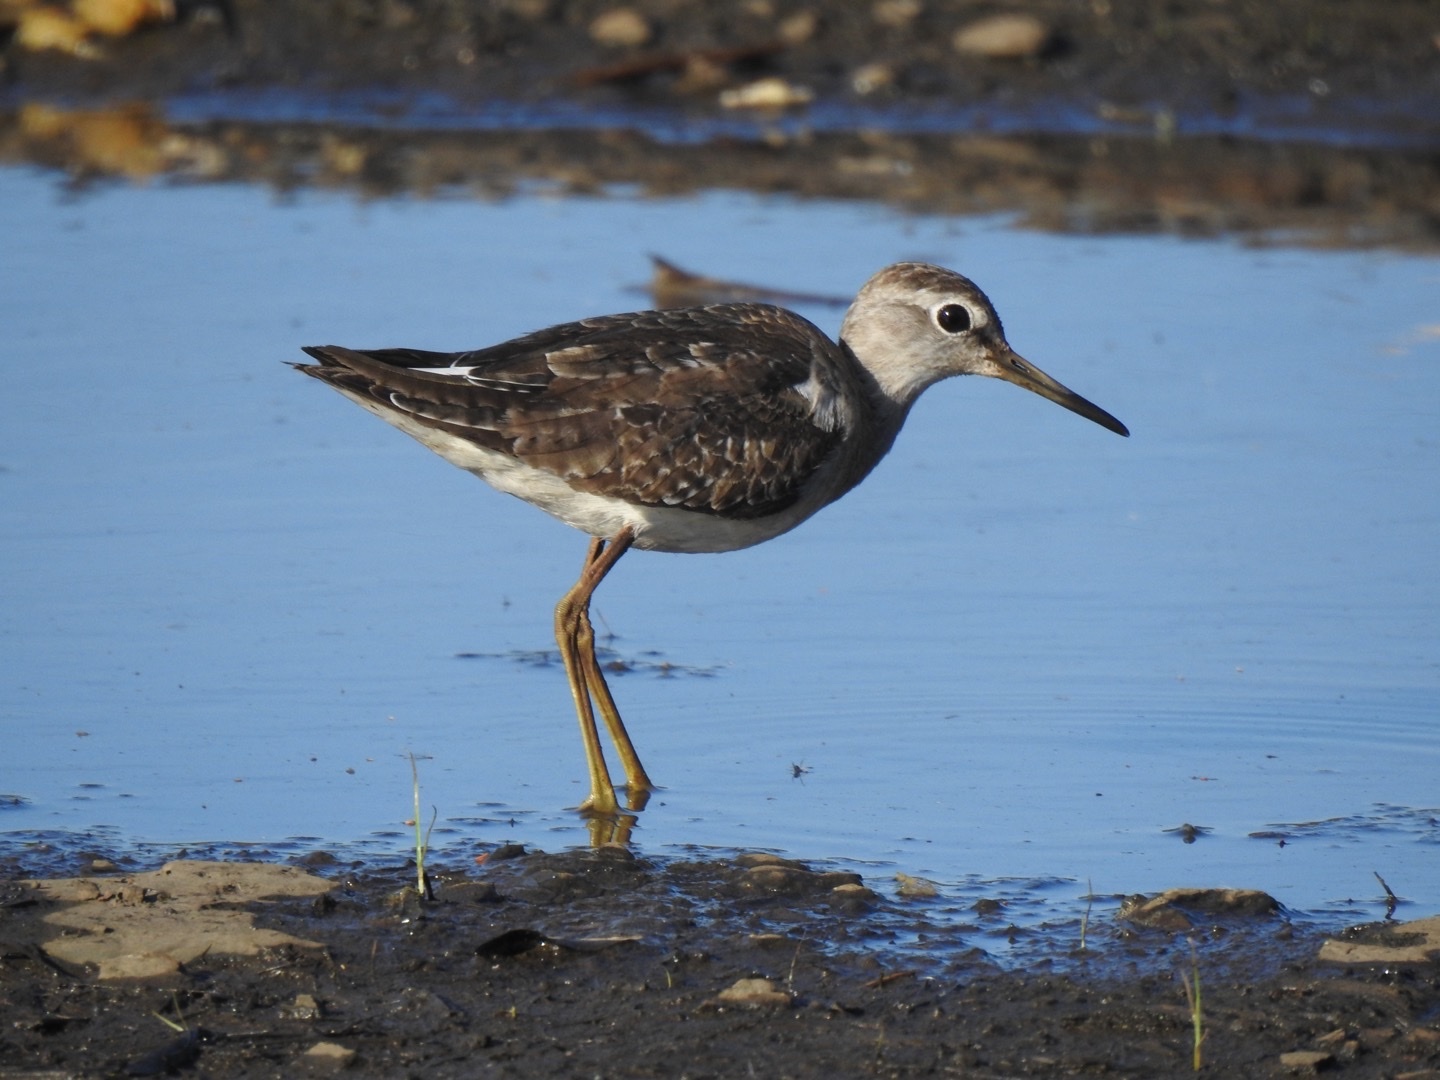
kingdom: Animalia
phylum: Chordata
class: Aves
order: Charadriiformes
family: Scolopacidae
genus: Tringa
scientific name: Tringa glareola
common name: Wood sandpiper
